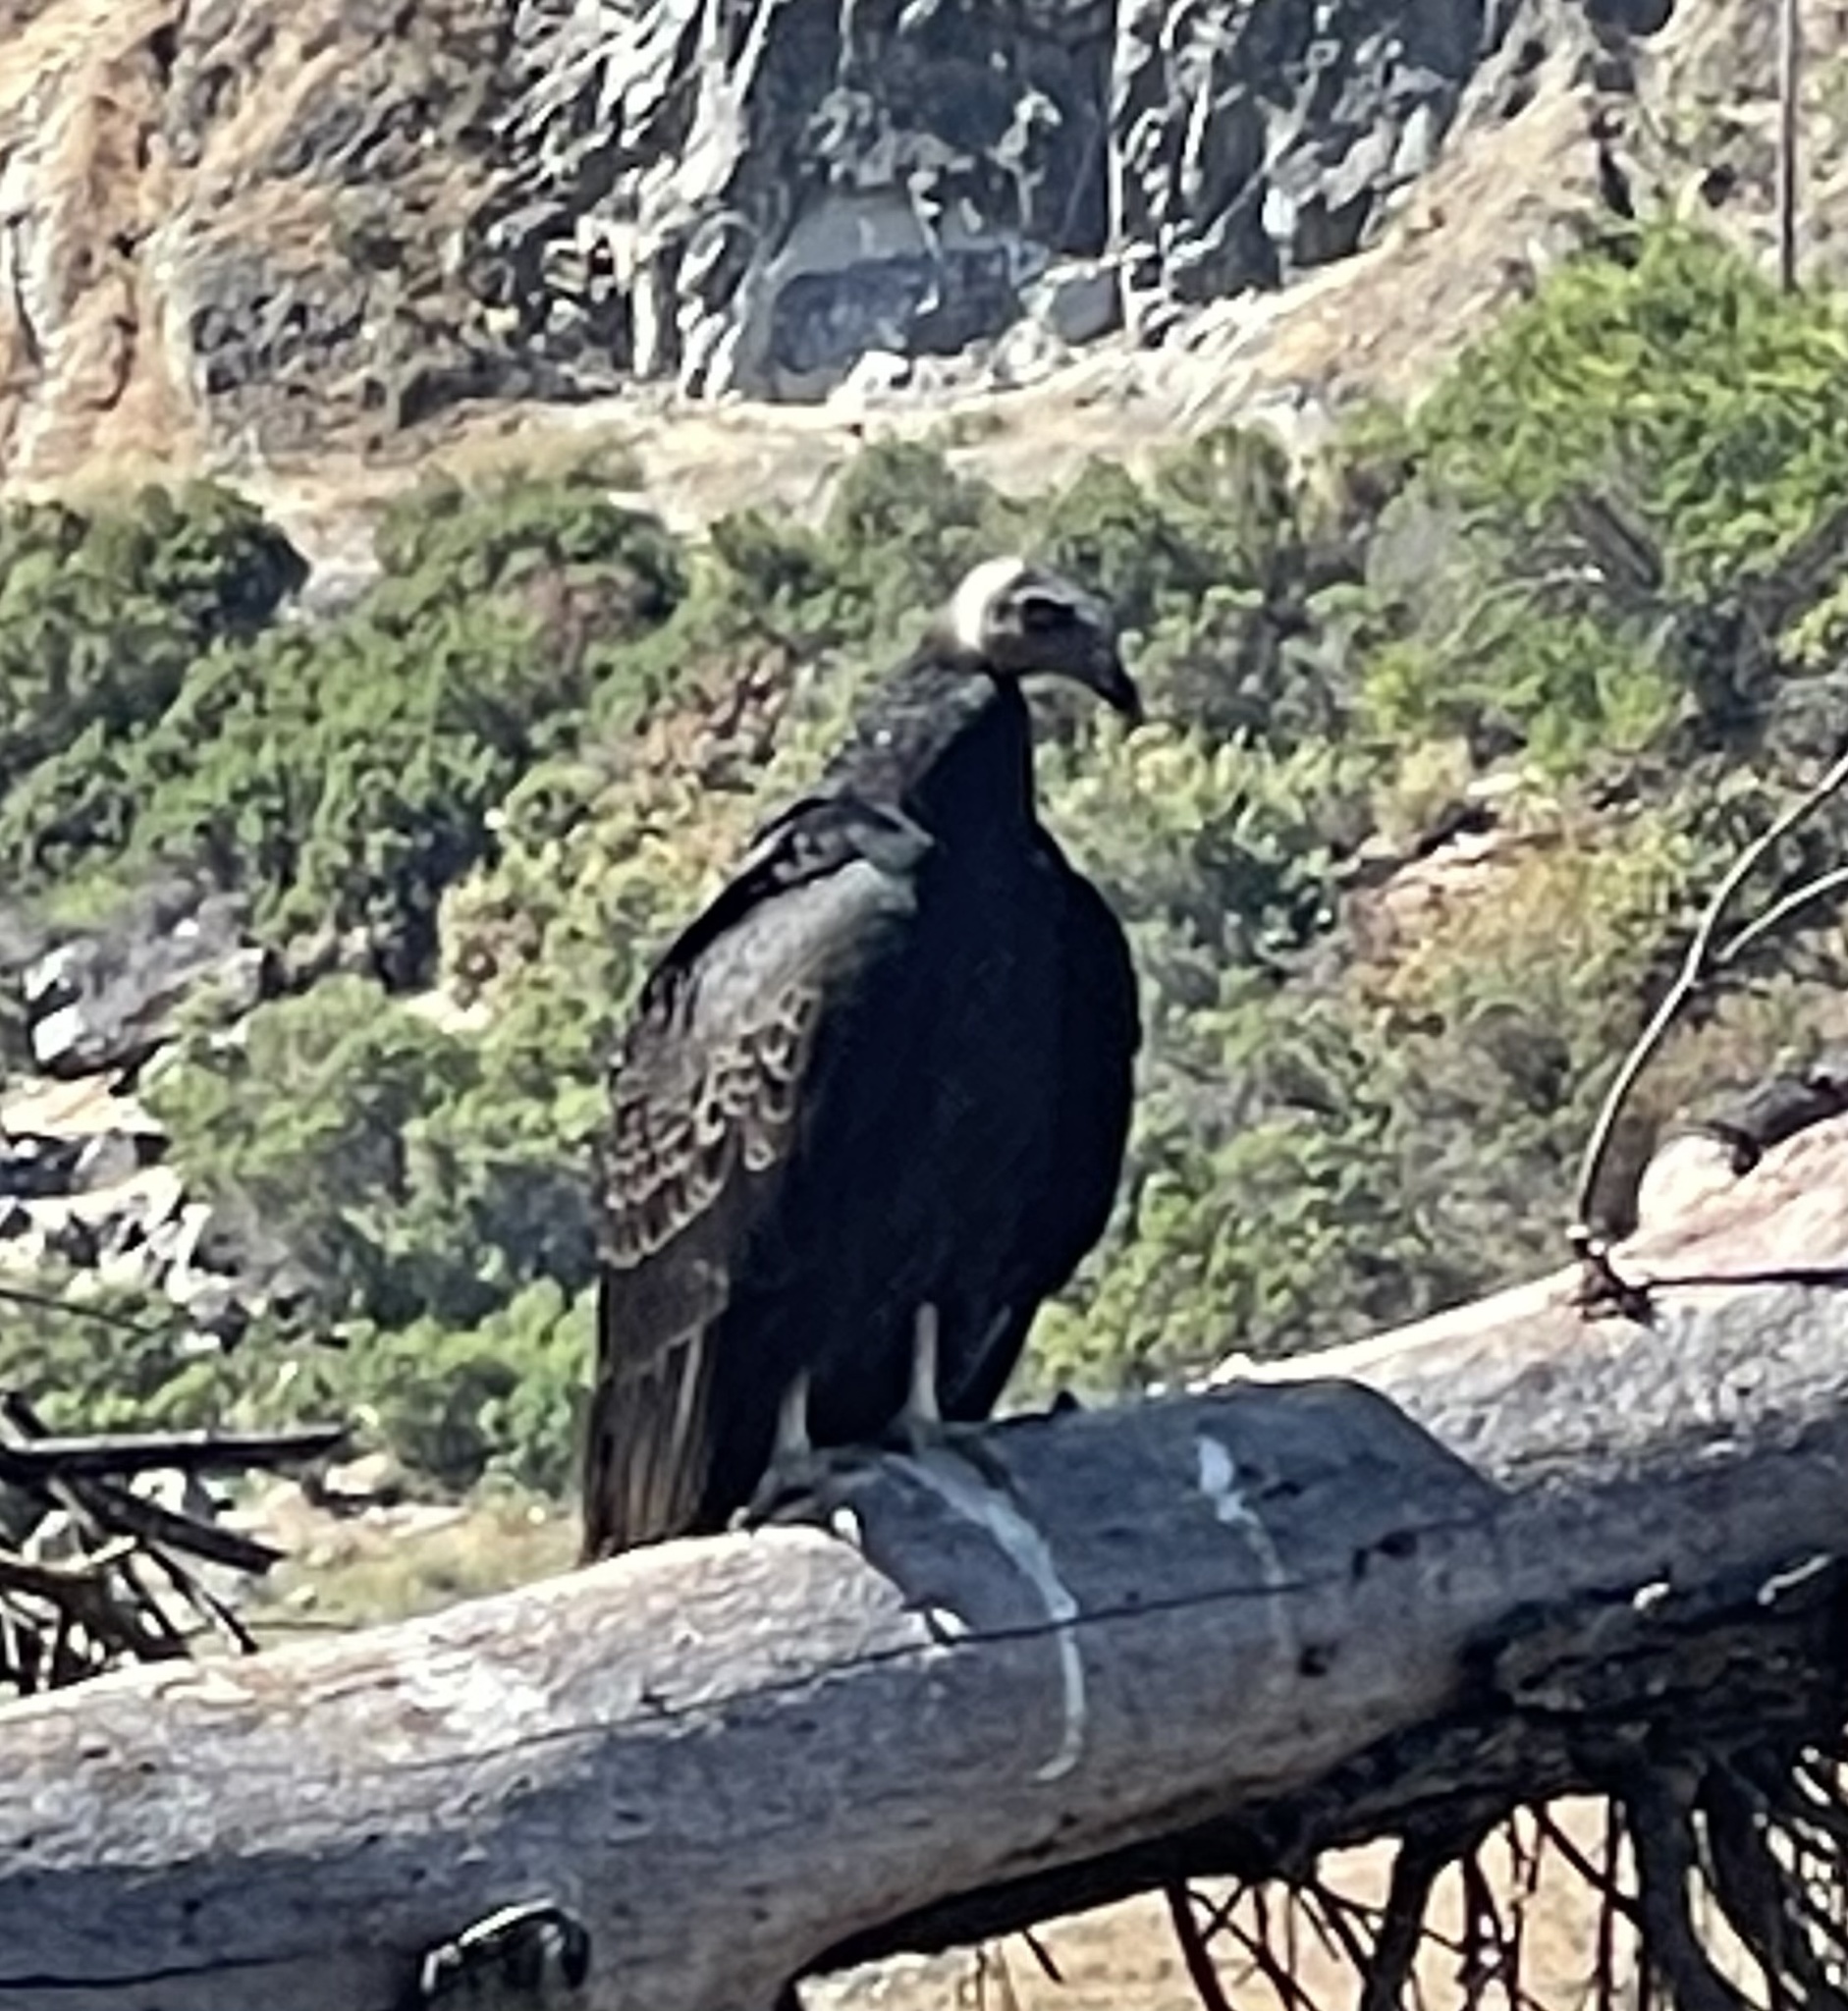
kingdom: Animalia
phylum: Chordata
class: Aves
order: Accipitriformes
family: Cathartidae
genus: Cathartes
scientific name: Cathartes aura
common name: Turkey vulture
